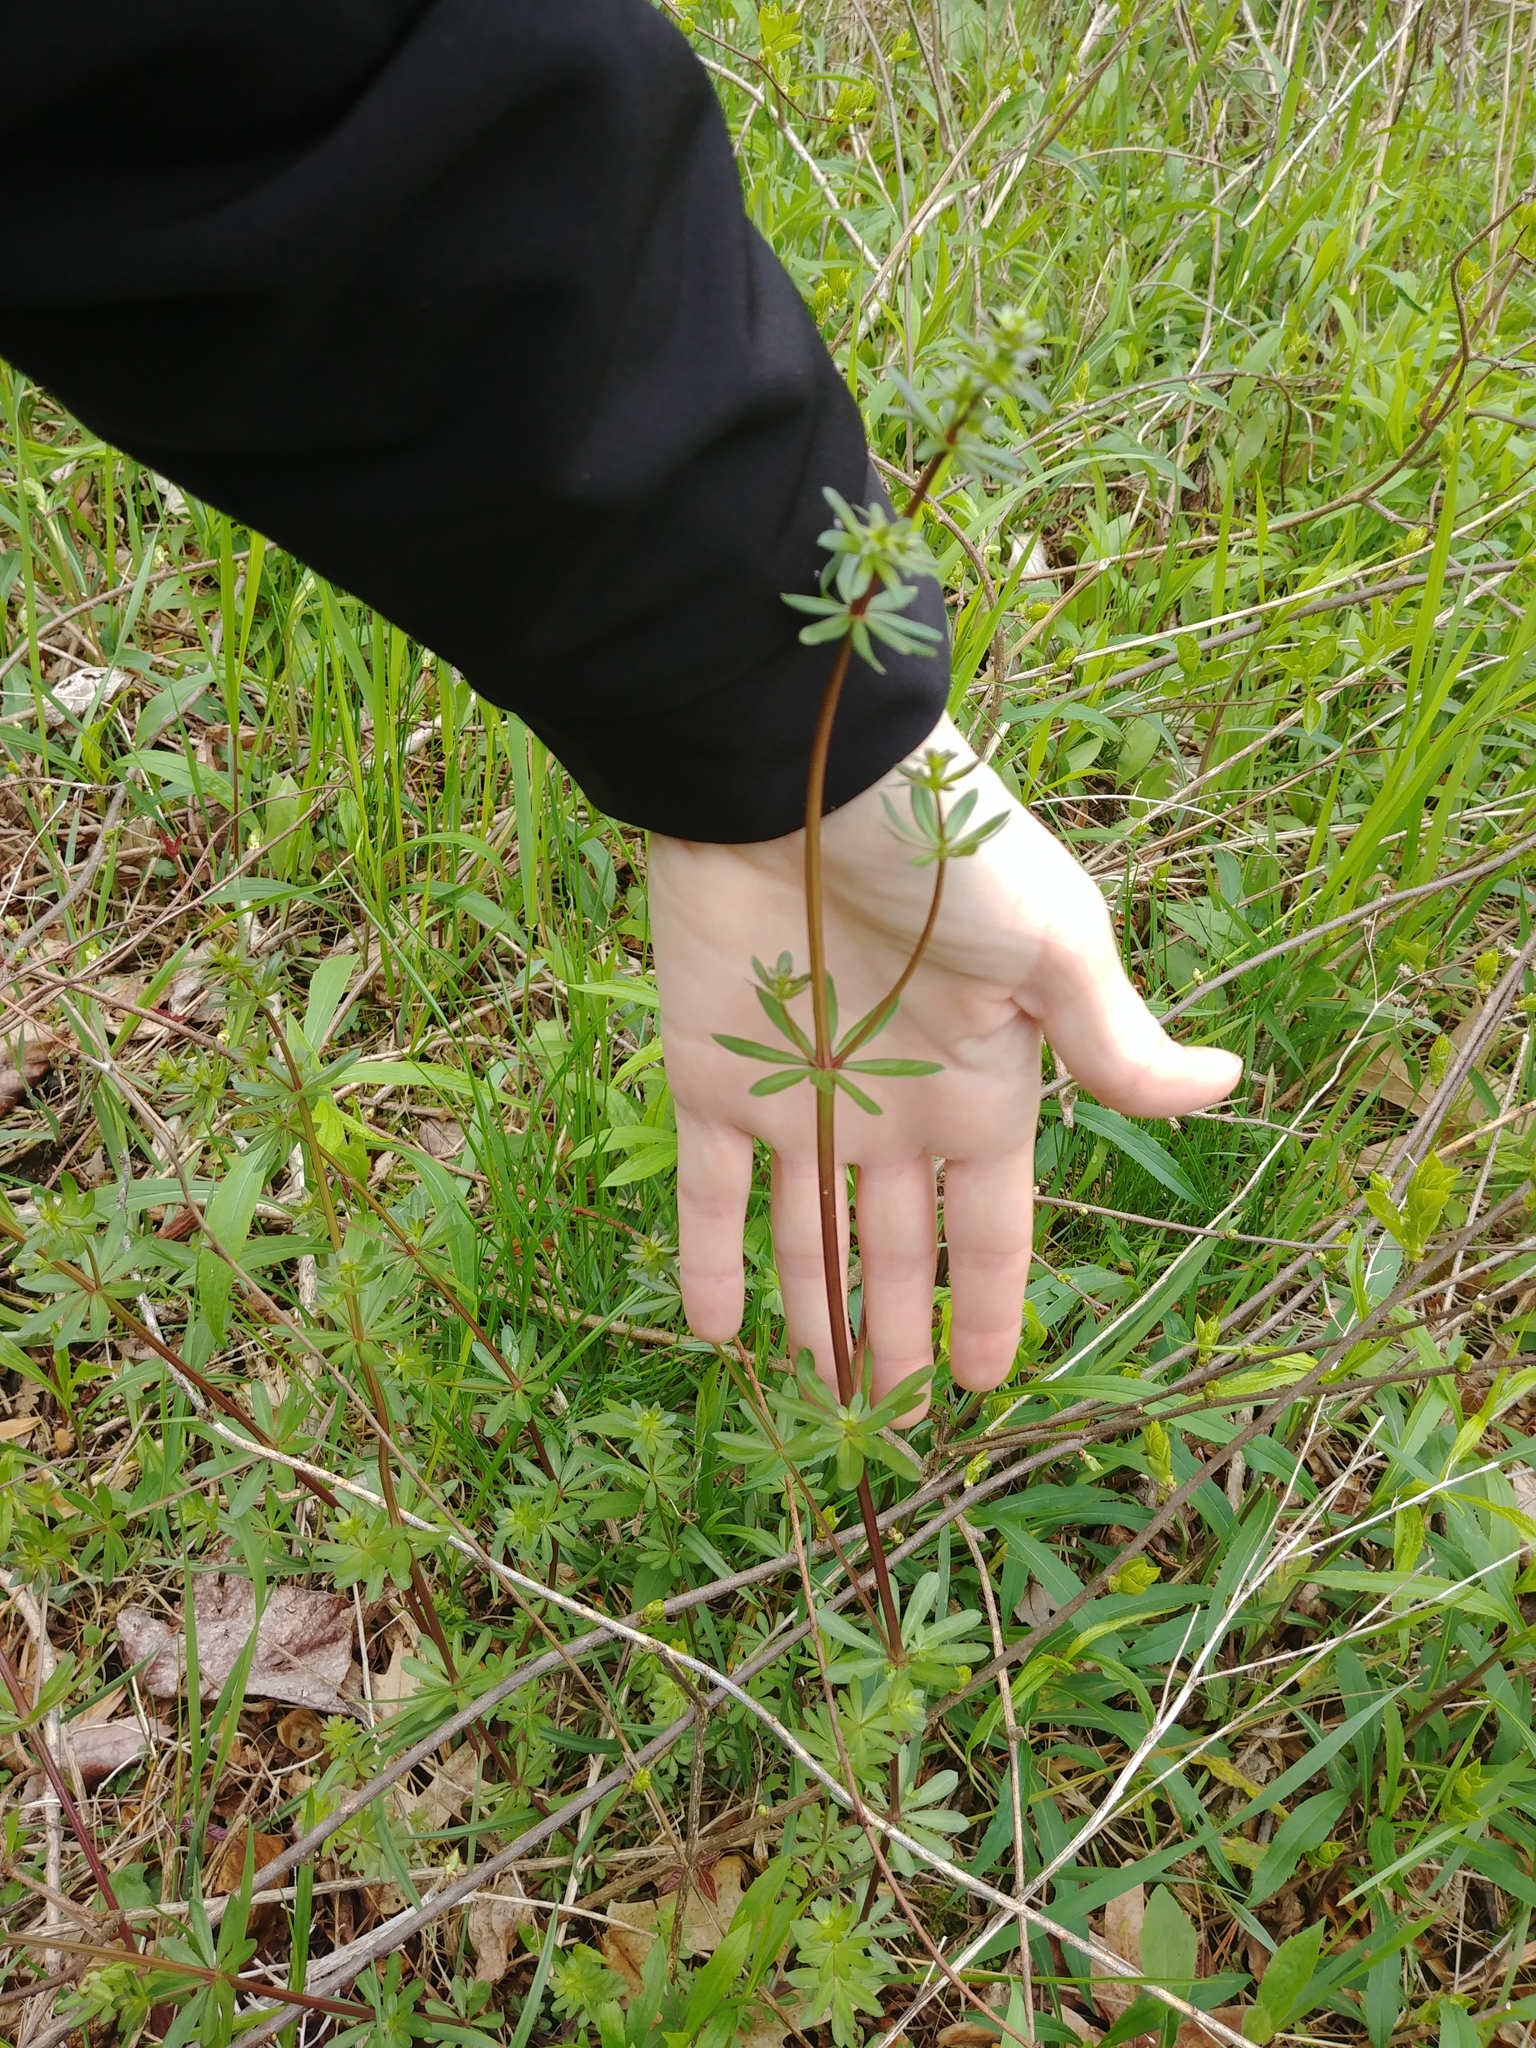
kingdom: Plantae
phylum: Tracheophyta
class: Magnoliopsida
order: Gentianales
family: Rubiaceae
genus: Galium
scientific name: Galium mollugo
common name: Hedge bedstraw
